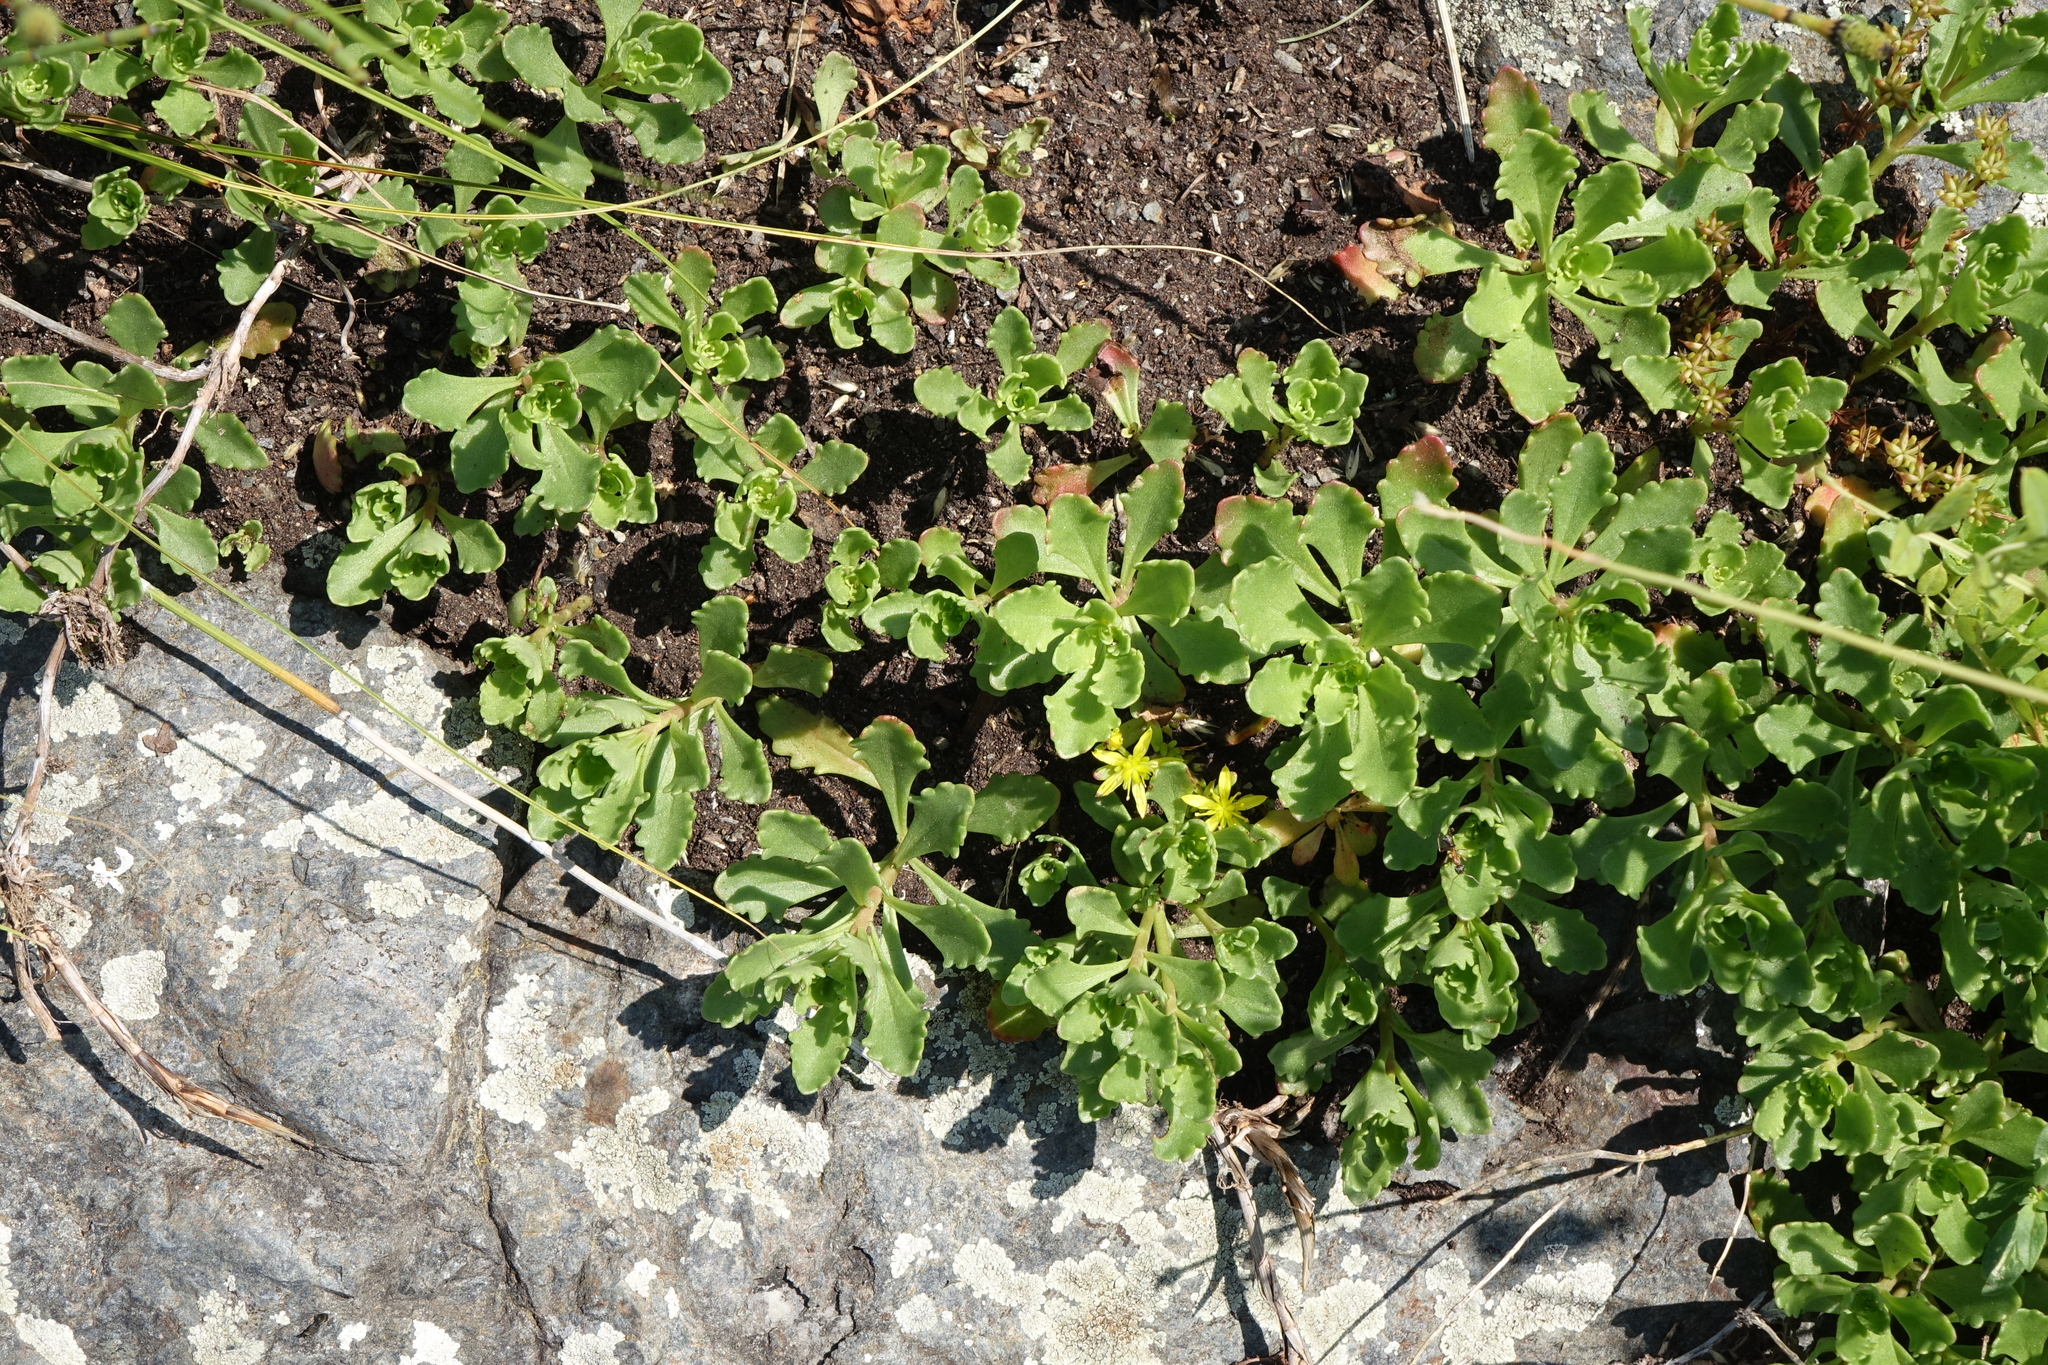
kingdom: Plantae
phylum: Tracheophyta
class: Magnoliopsida
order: Saxifragales
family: Crassulaceae
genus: Phedimus
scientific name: Phedimus hybridus
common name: Hybrid stonecrop
